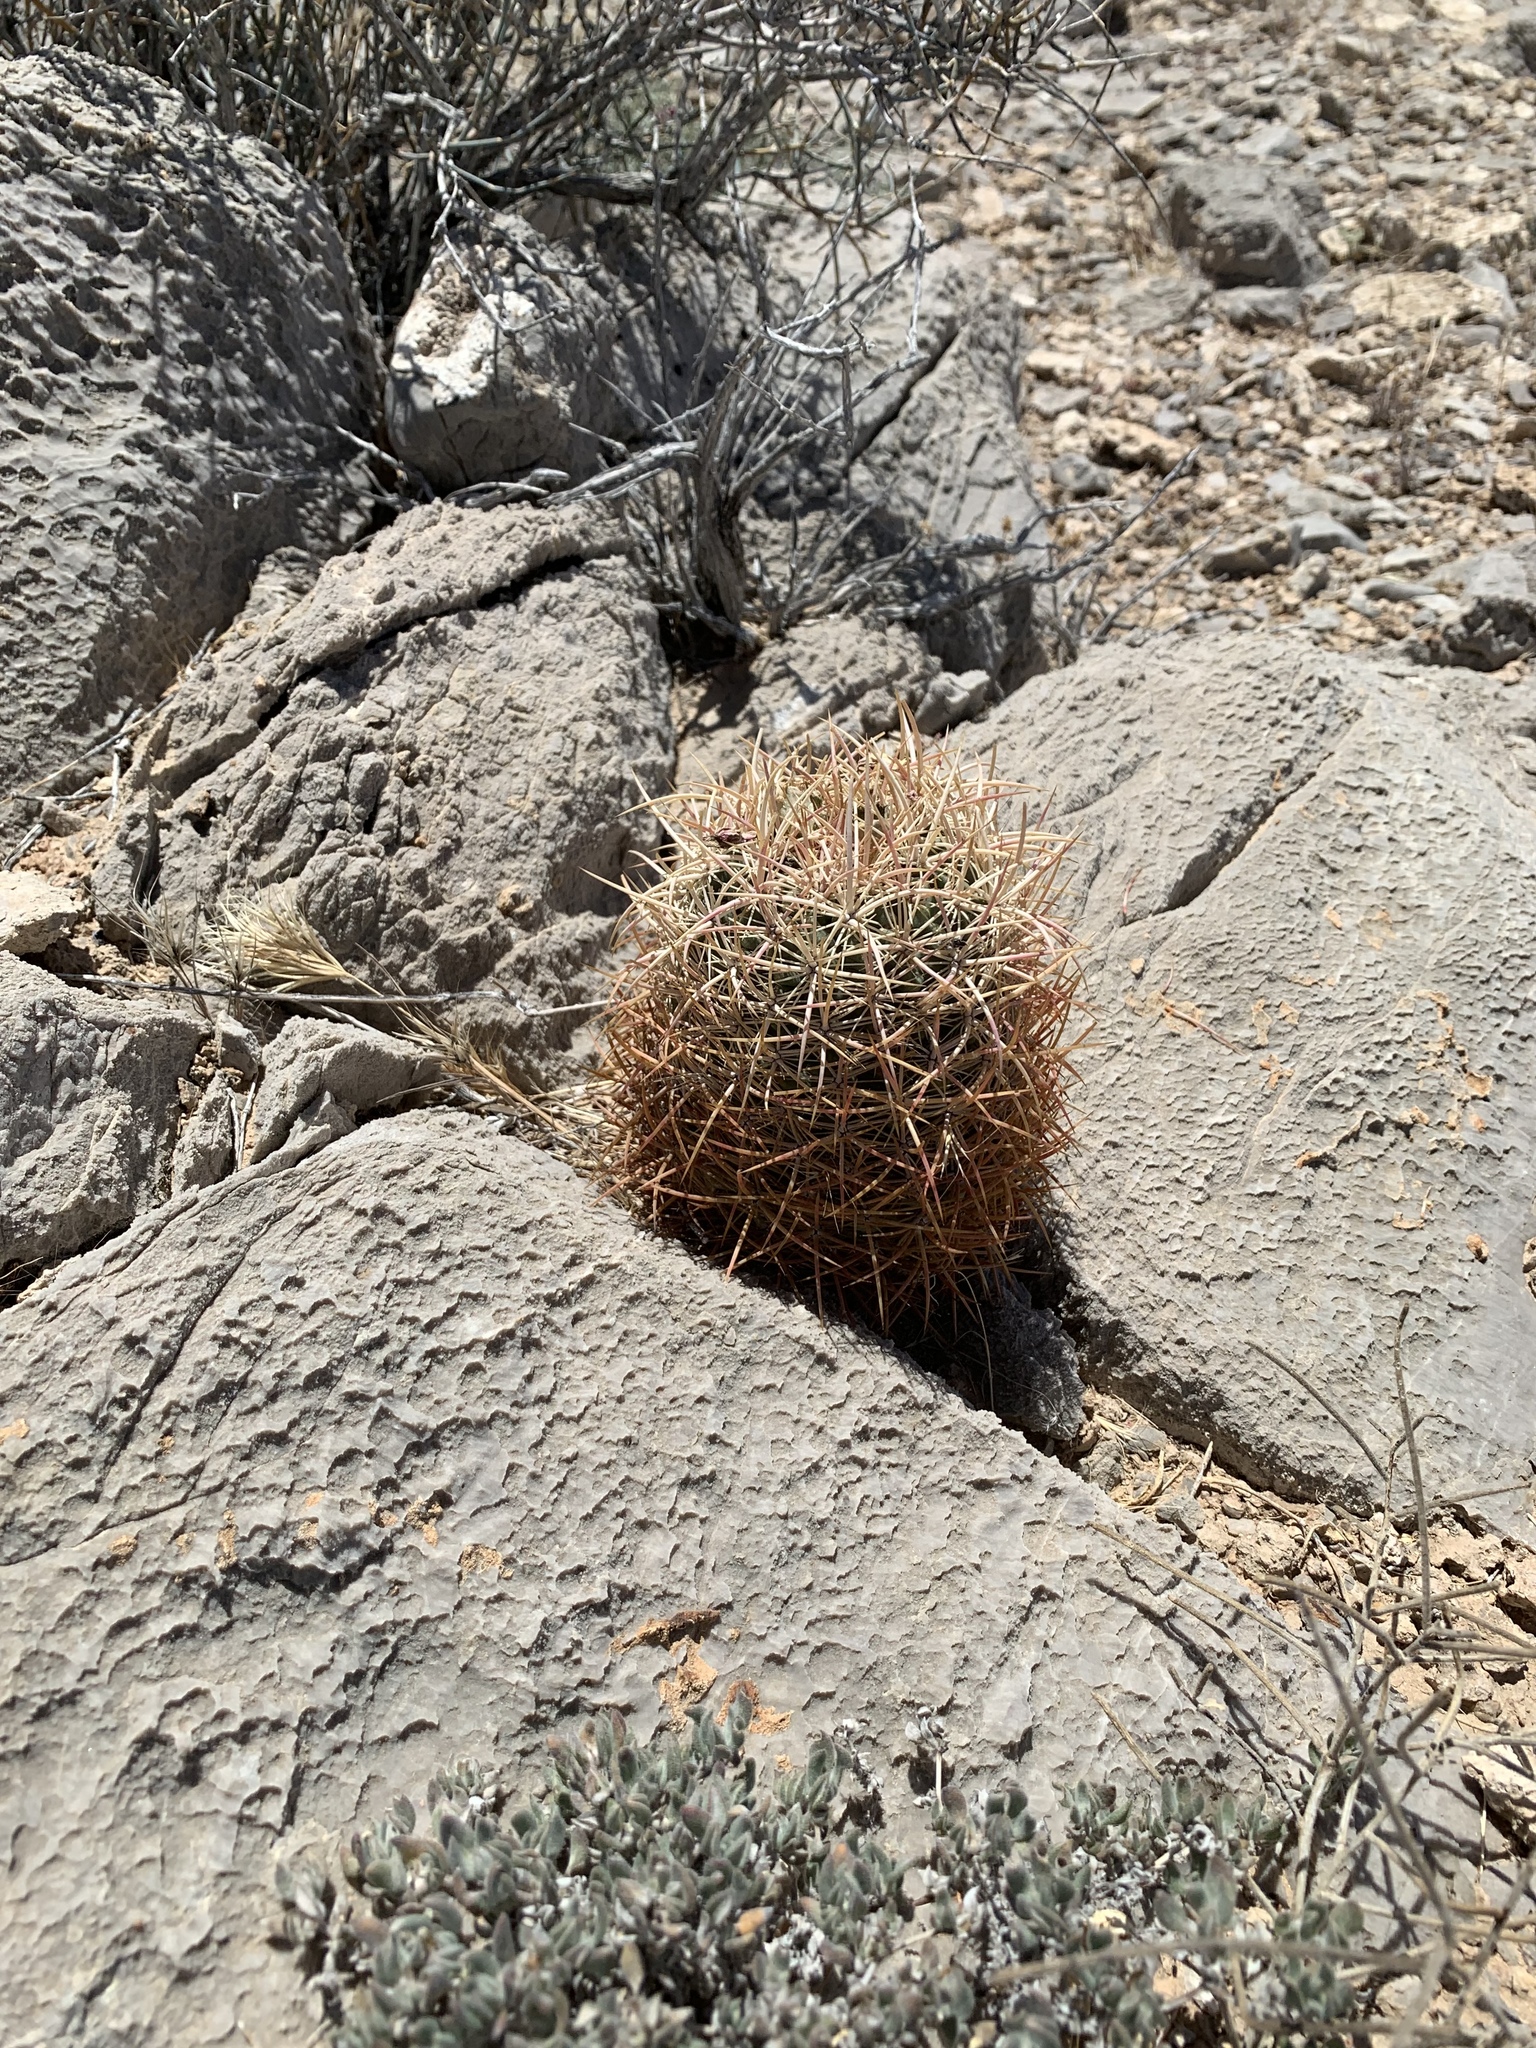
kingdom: Plantae
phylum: Tracheophyta
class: Magnoliopsida
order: Caryophyllales
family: Cactaceae
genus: Sclerocactus
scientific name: Sclerocactus johnsonii
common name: Eight-spine fishhook cactus
